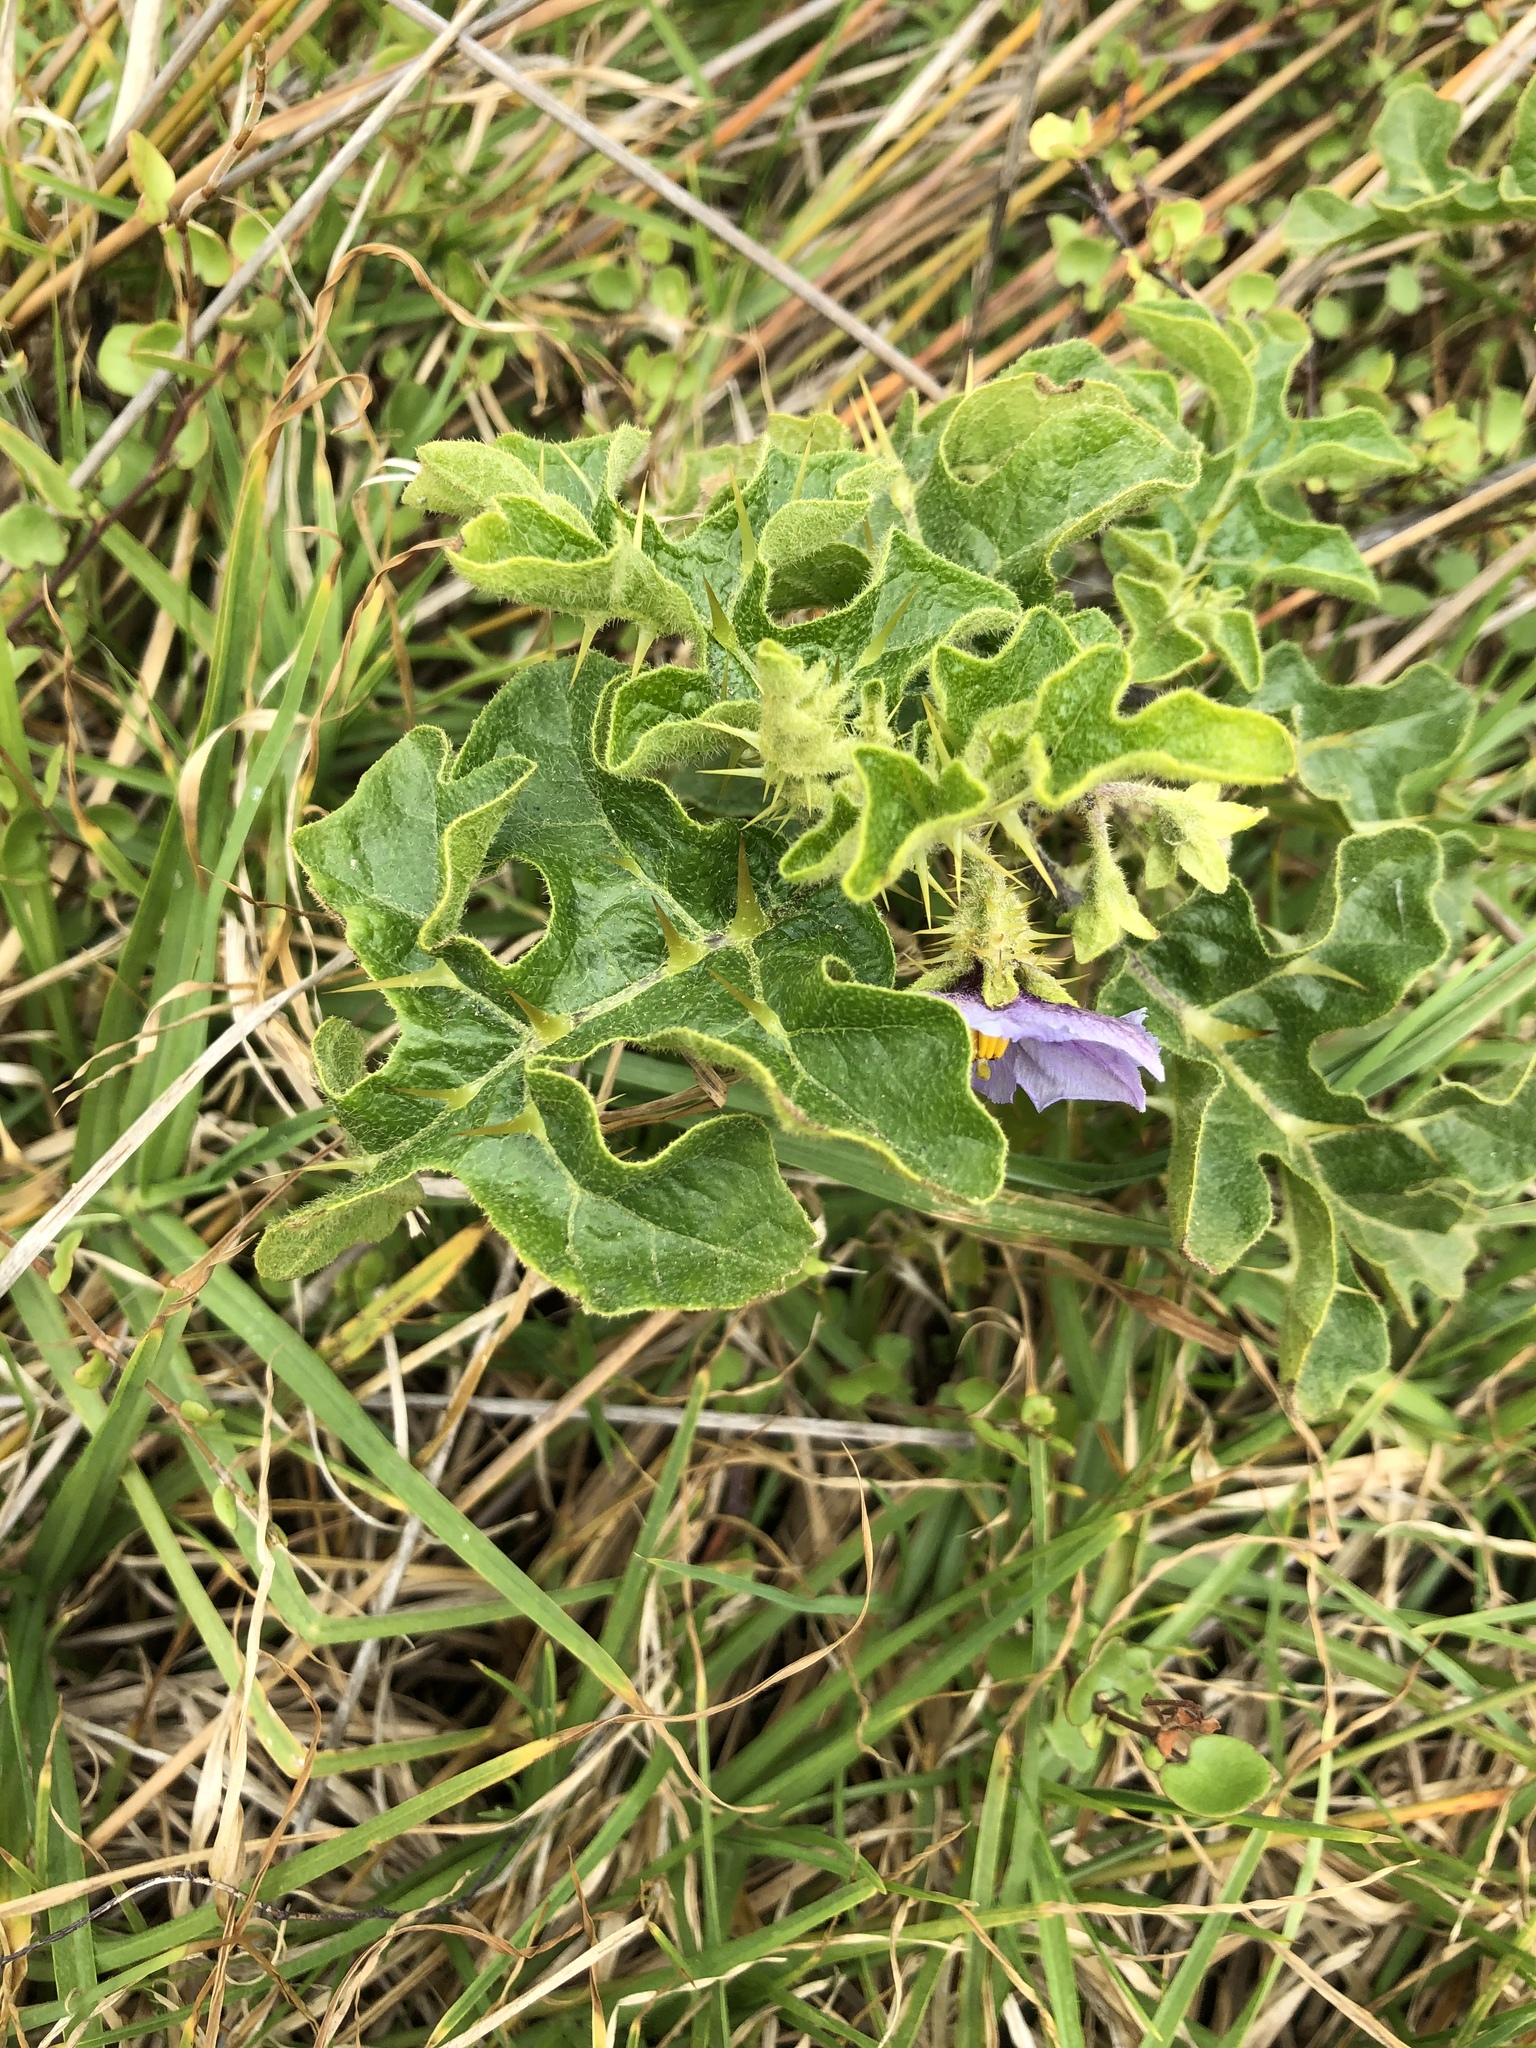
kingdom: Plantae
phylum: Tracheophyta
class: Magnoliopsida
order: Solanales
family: Solanaceae
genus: Solanum
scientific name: Solanum linnaeanum
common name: Nightshade
